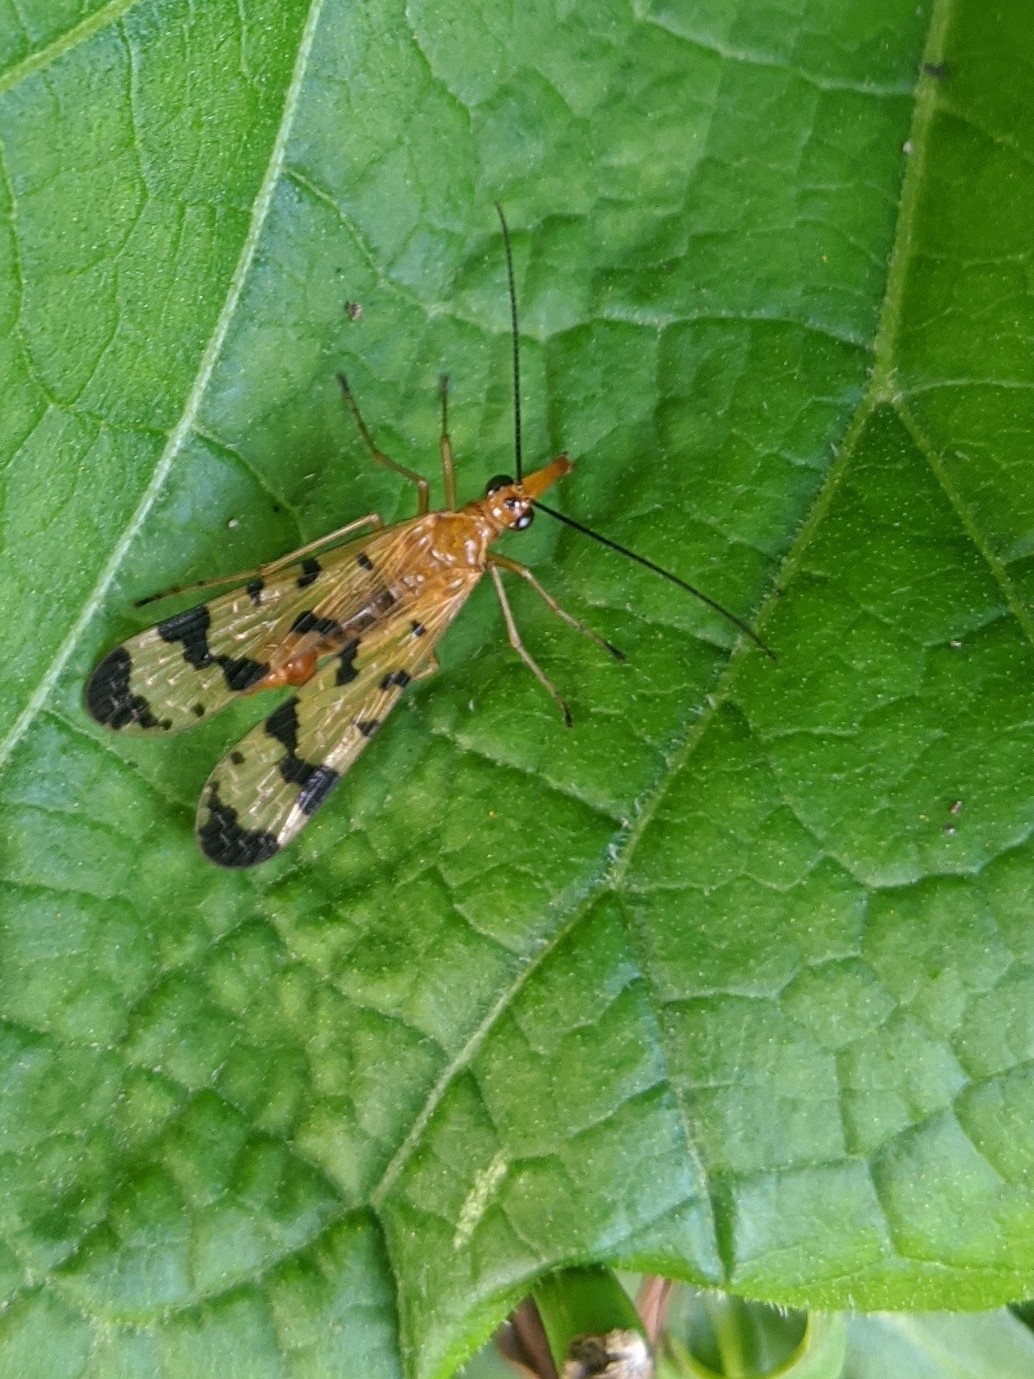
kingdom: Animalia
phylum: Arthropoda
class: Insecta
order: Mecoptera
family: Panorpidae
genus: Panorpa
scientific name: Panorpa debilis
